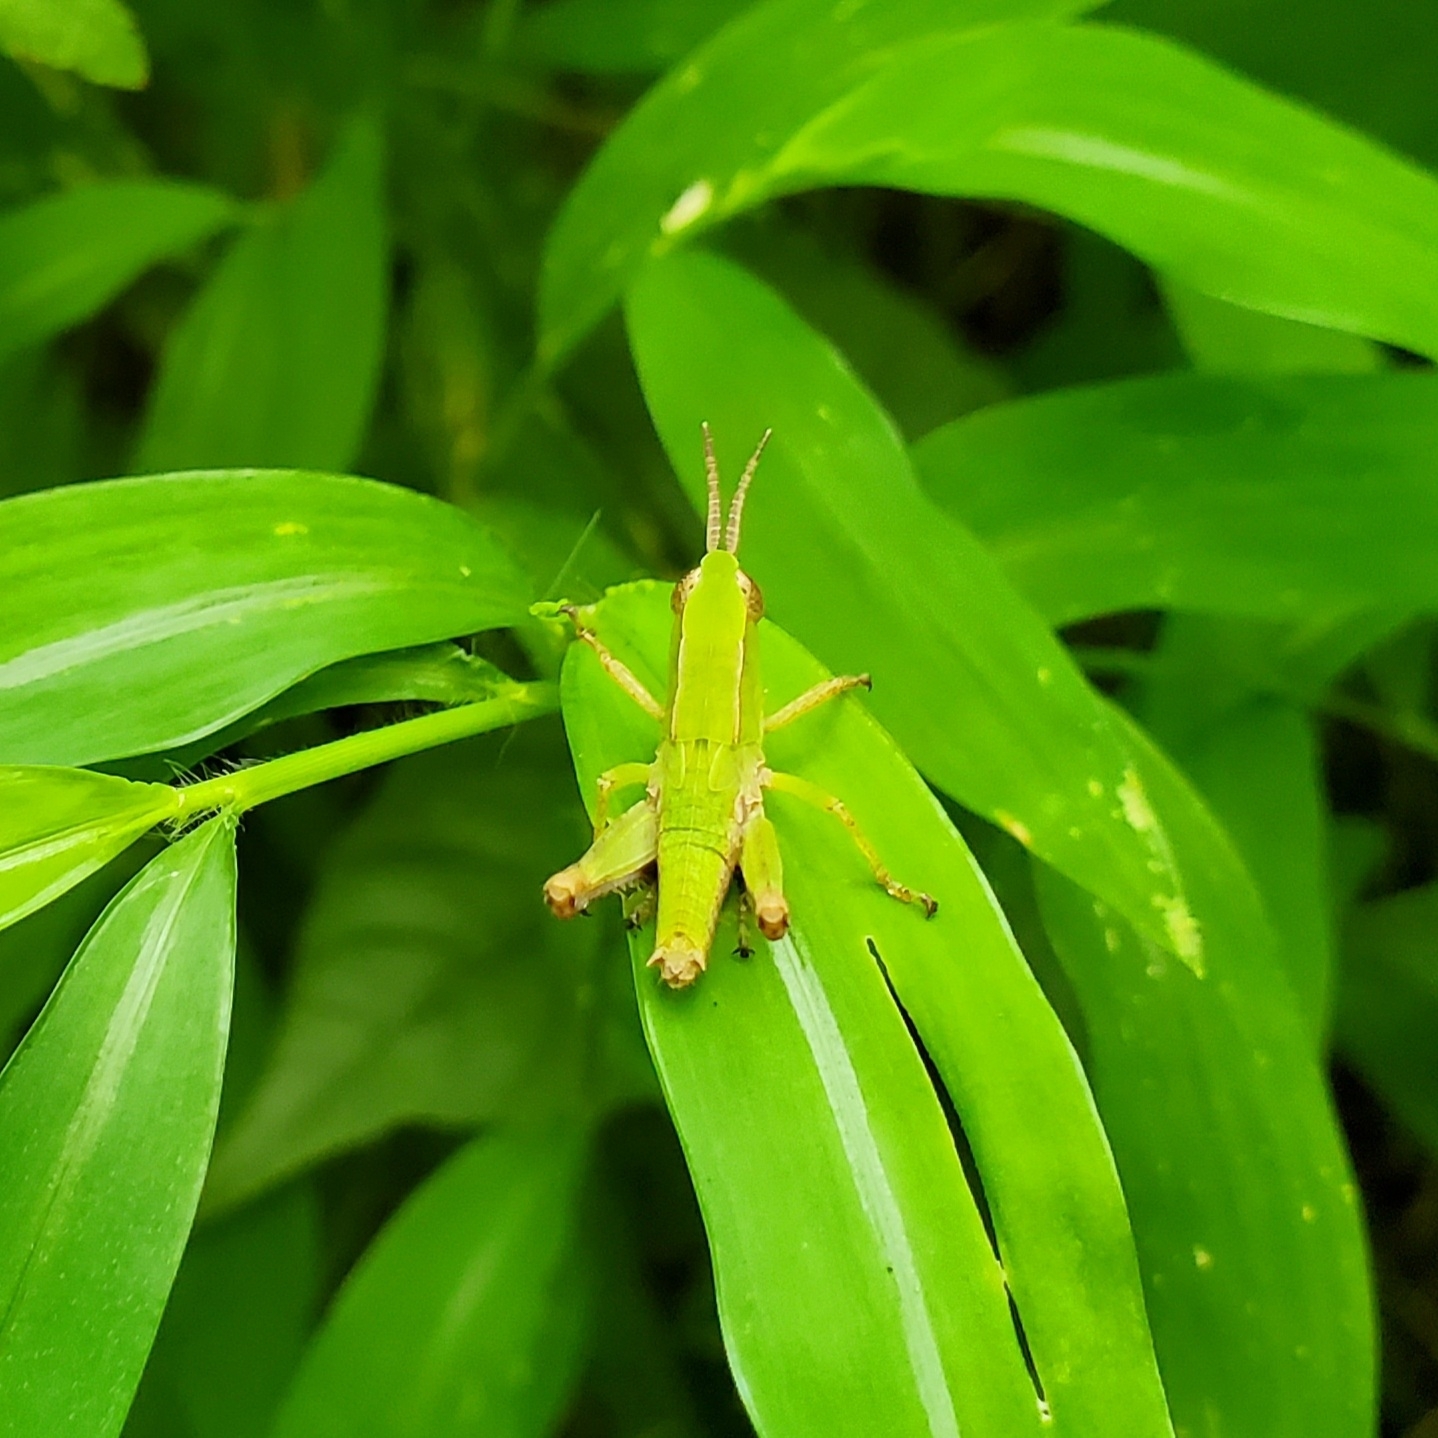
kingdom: Animalia
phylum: Arthropoda
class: Insecta
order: Orthoptera
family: Acrididae
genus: Dichromorpha
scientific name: Dichromorpha viridis
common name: Short-winged green grasshopper
